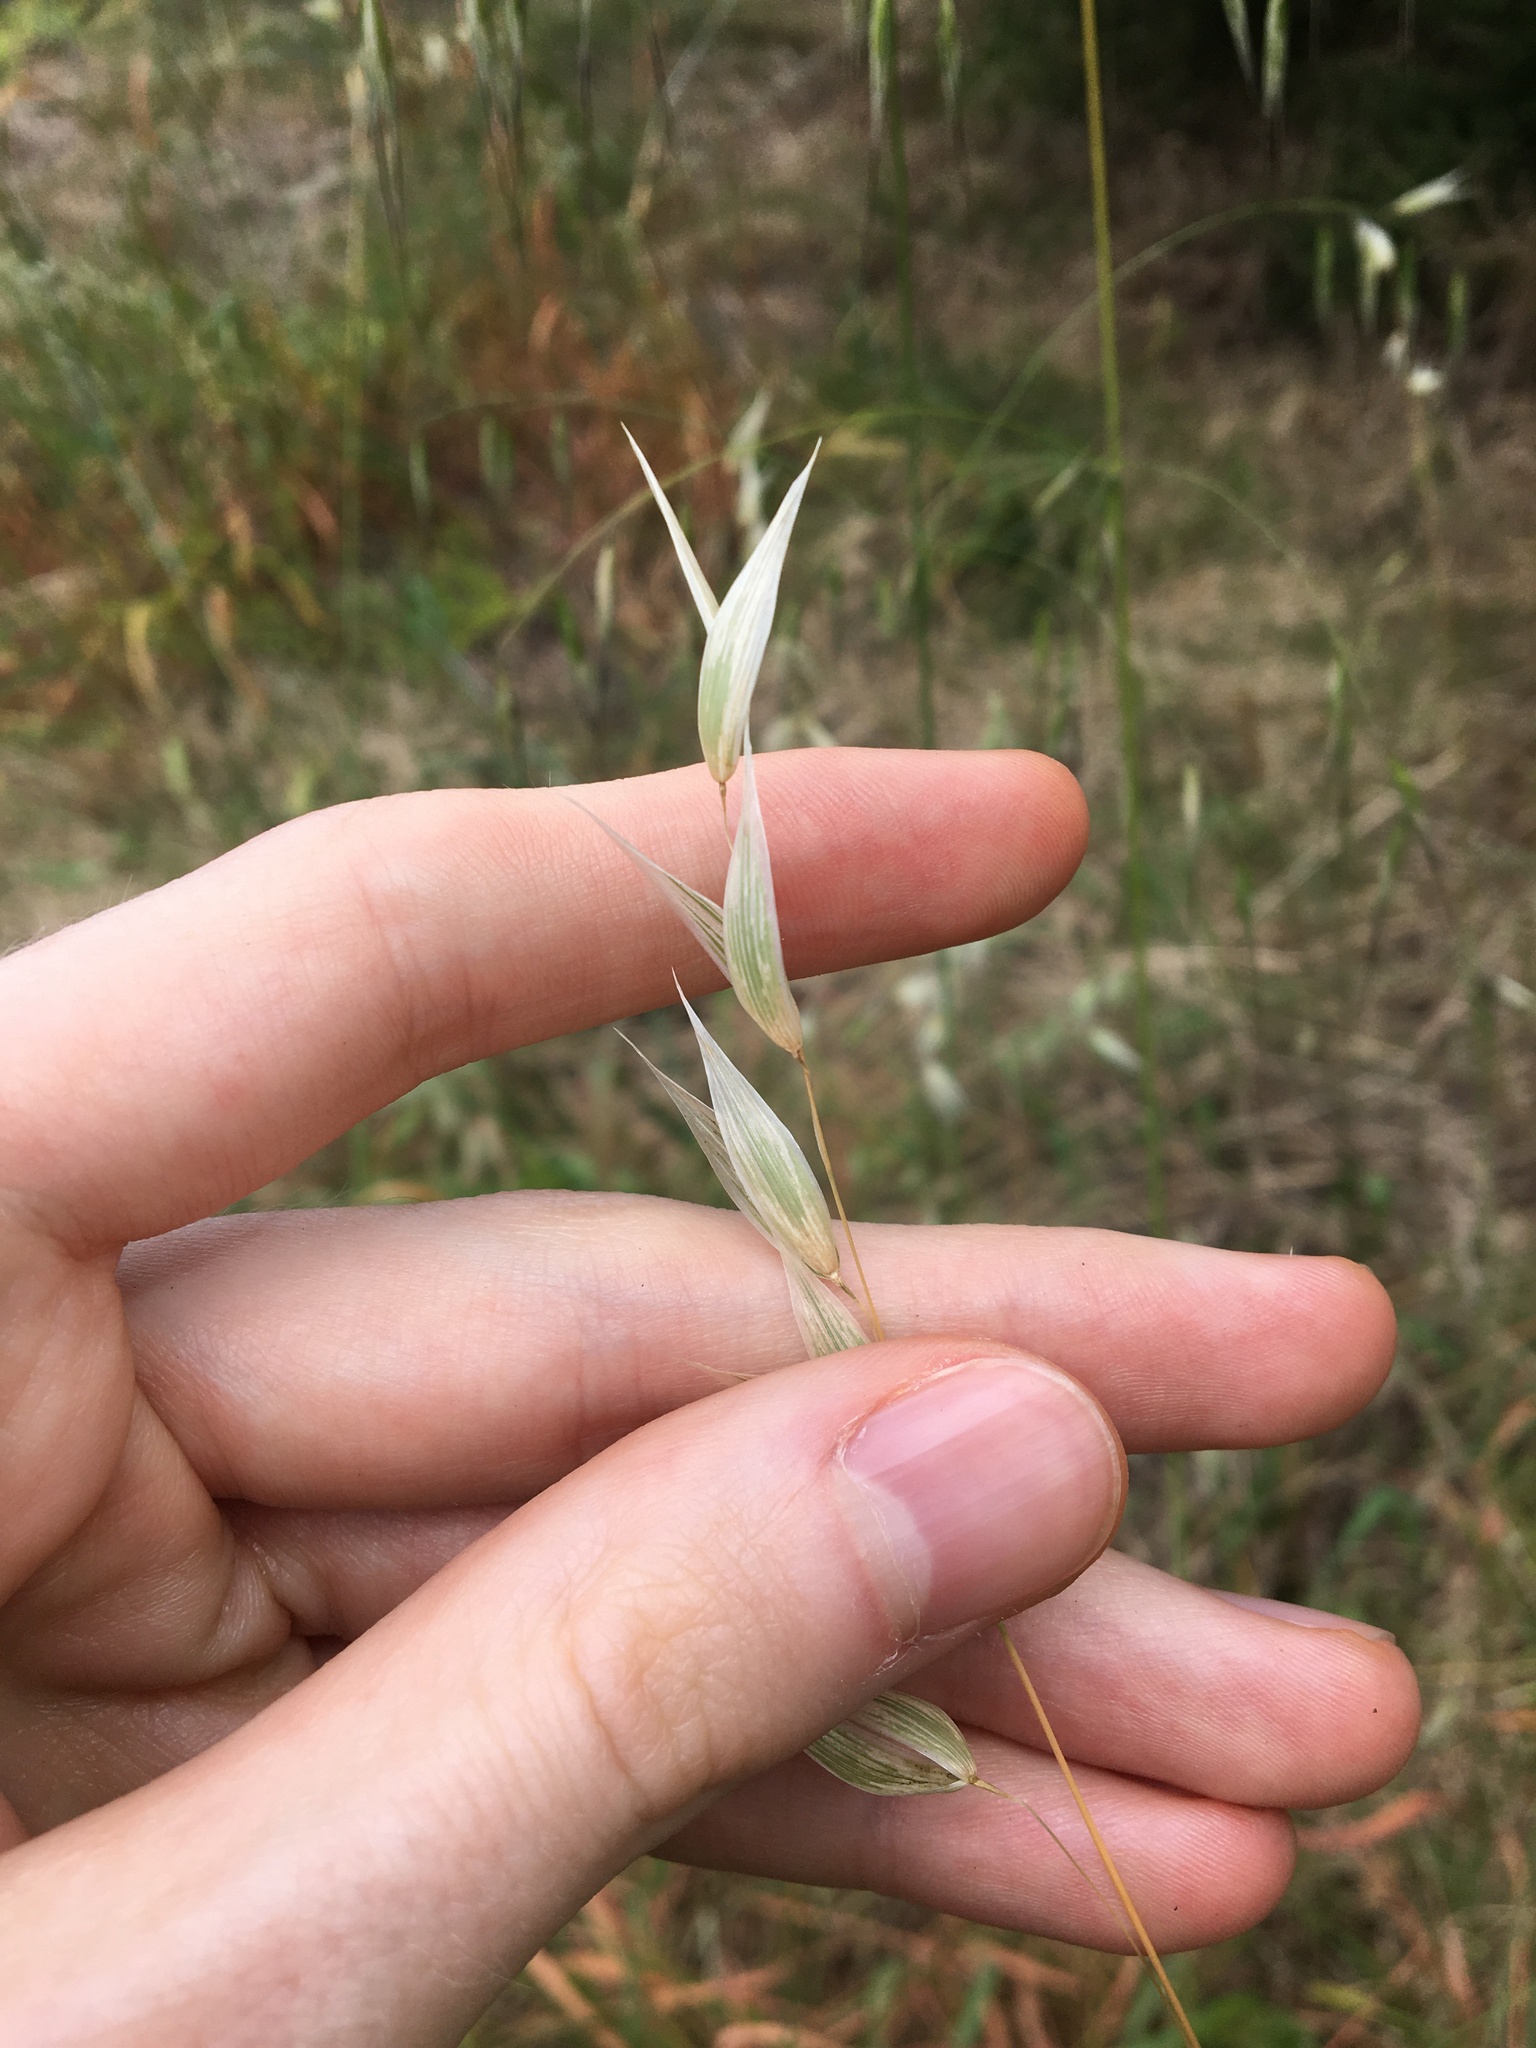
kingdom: Plantae
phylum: Tracheophyta
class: Liliopsida
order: Poales
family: Poaceae
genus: Avena
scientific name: Avena barbata
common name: Slender oat
